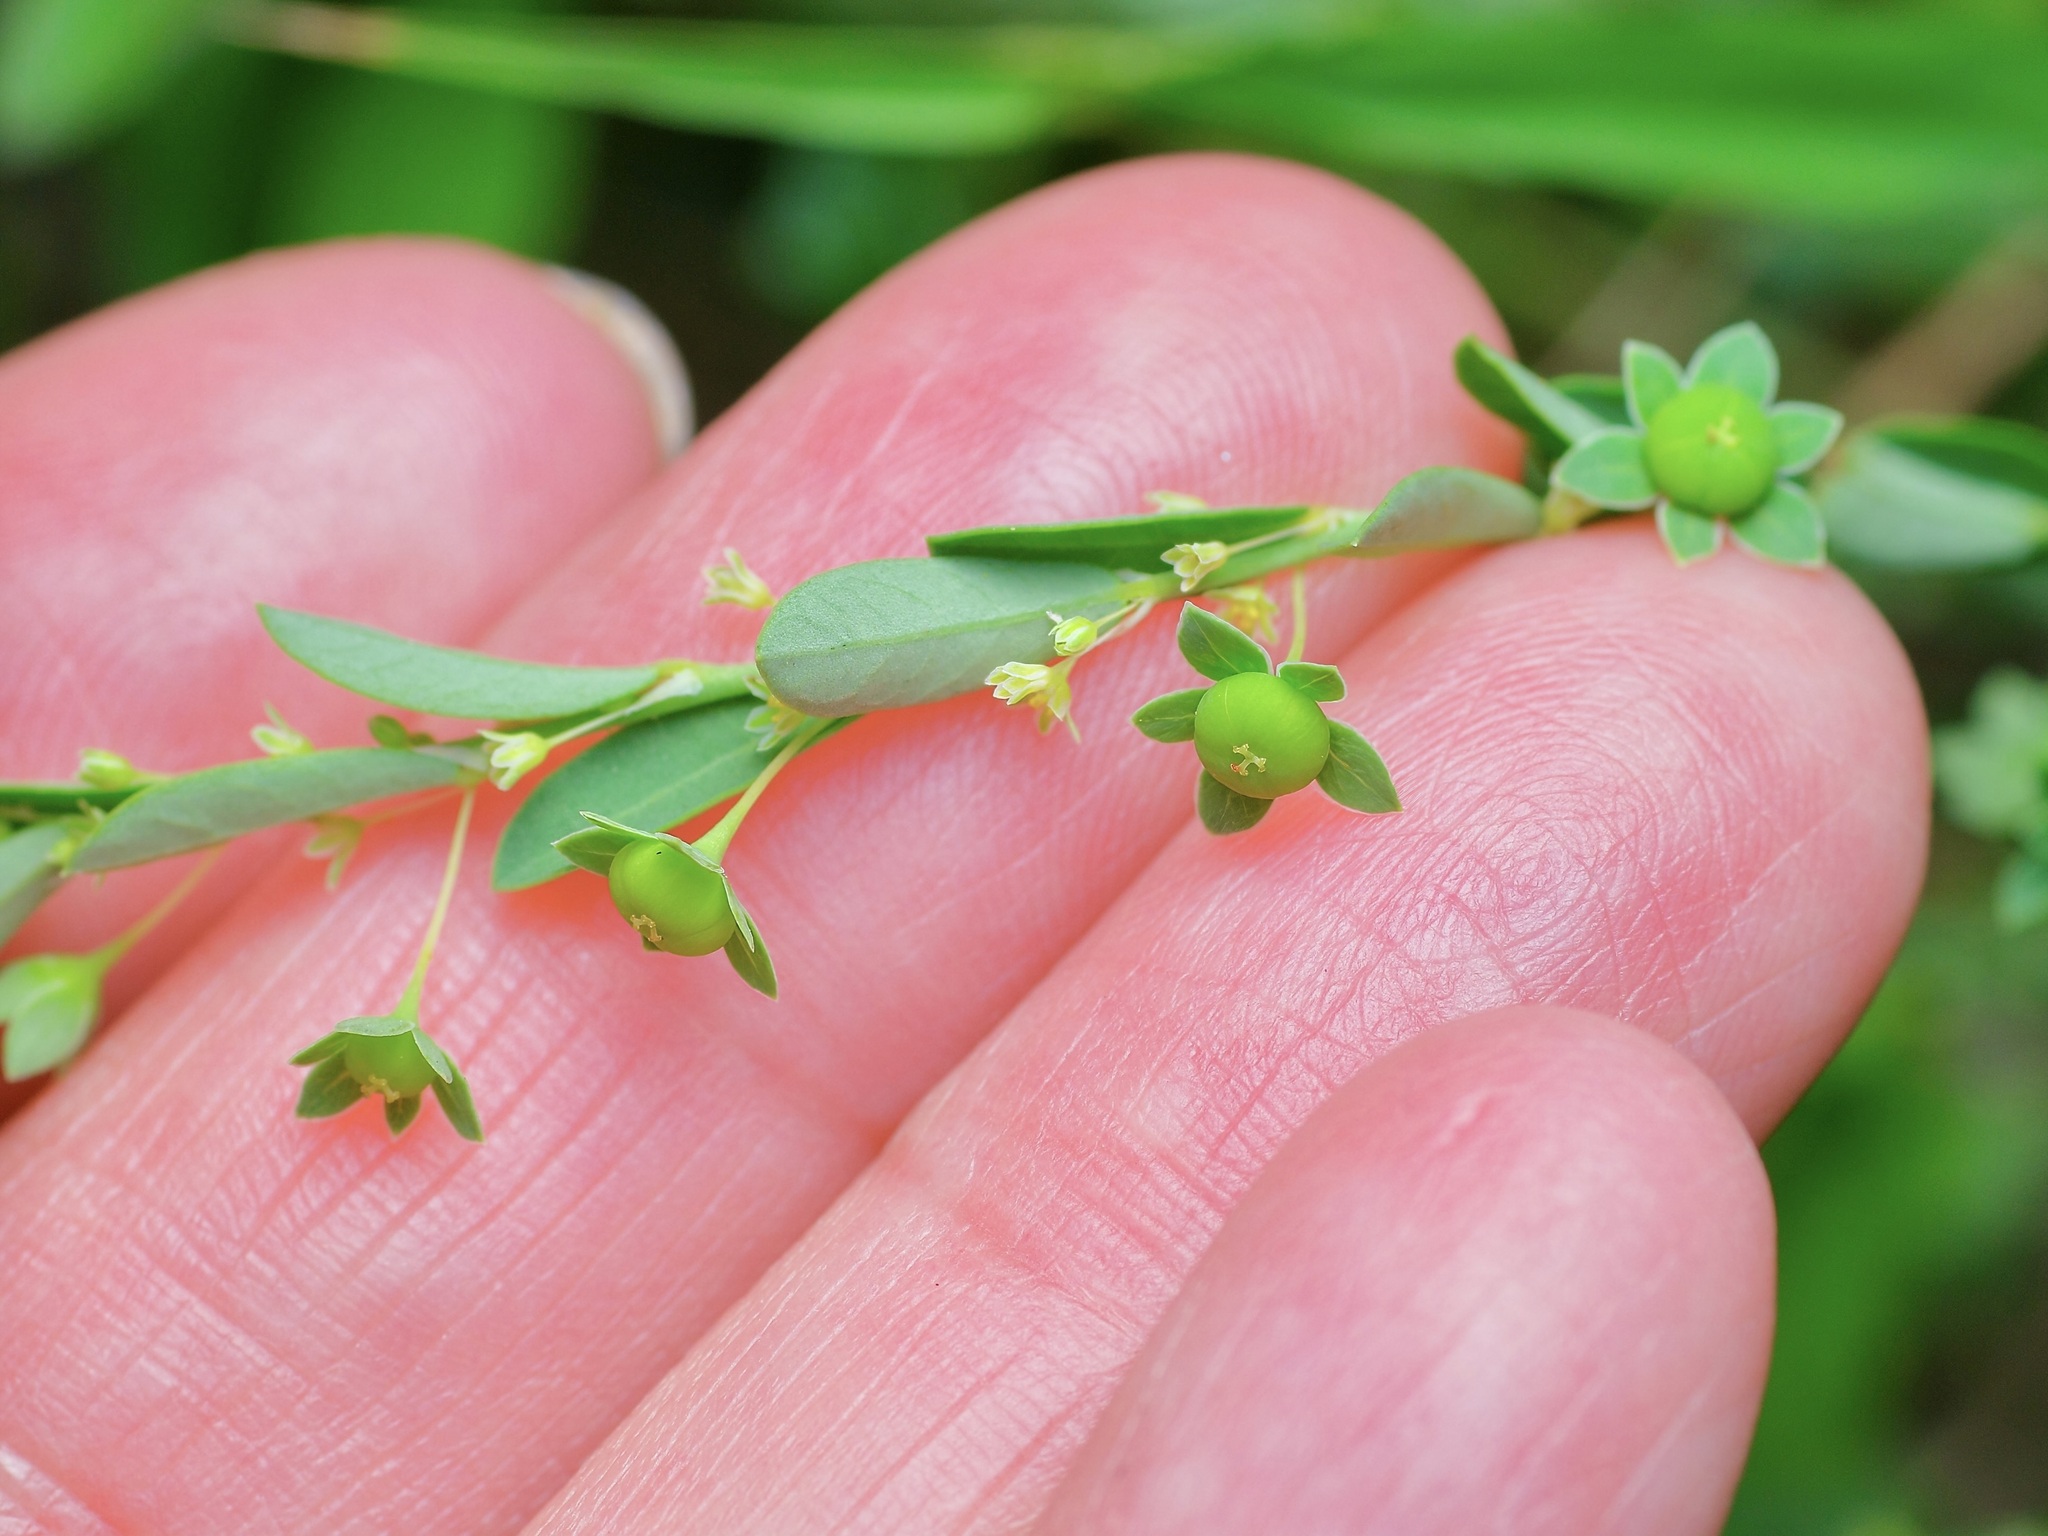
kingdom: Plantae
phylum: Tracheophyta
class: Magnoliopsida
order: Malpighiales
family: Phyllanthaceae
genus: Phyllanthus
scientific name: Phyllanthus polygonoides
